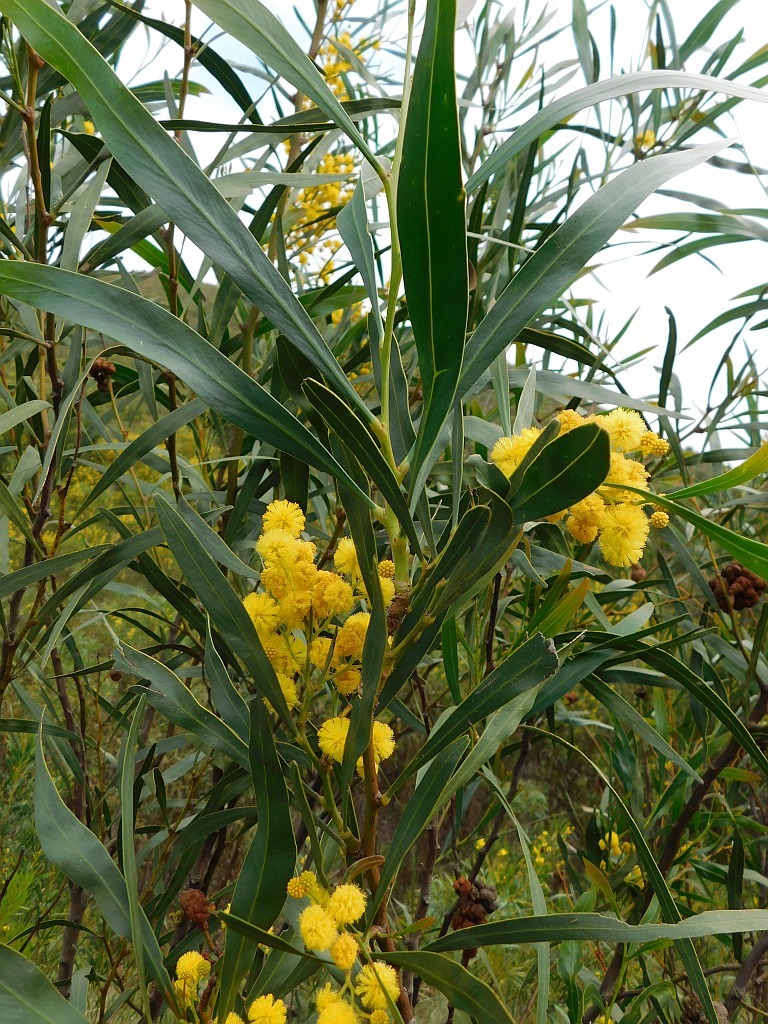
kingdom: Plantae
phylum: Tracheophyta
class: Magnoliopsida
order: Fabales
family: Fabaceae
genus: Acacia
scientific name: Acacia saligna
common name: Orange wattle
